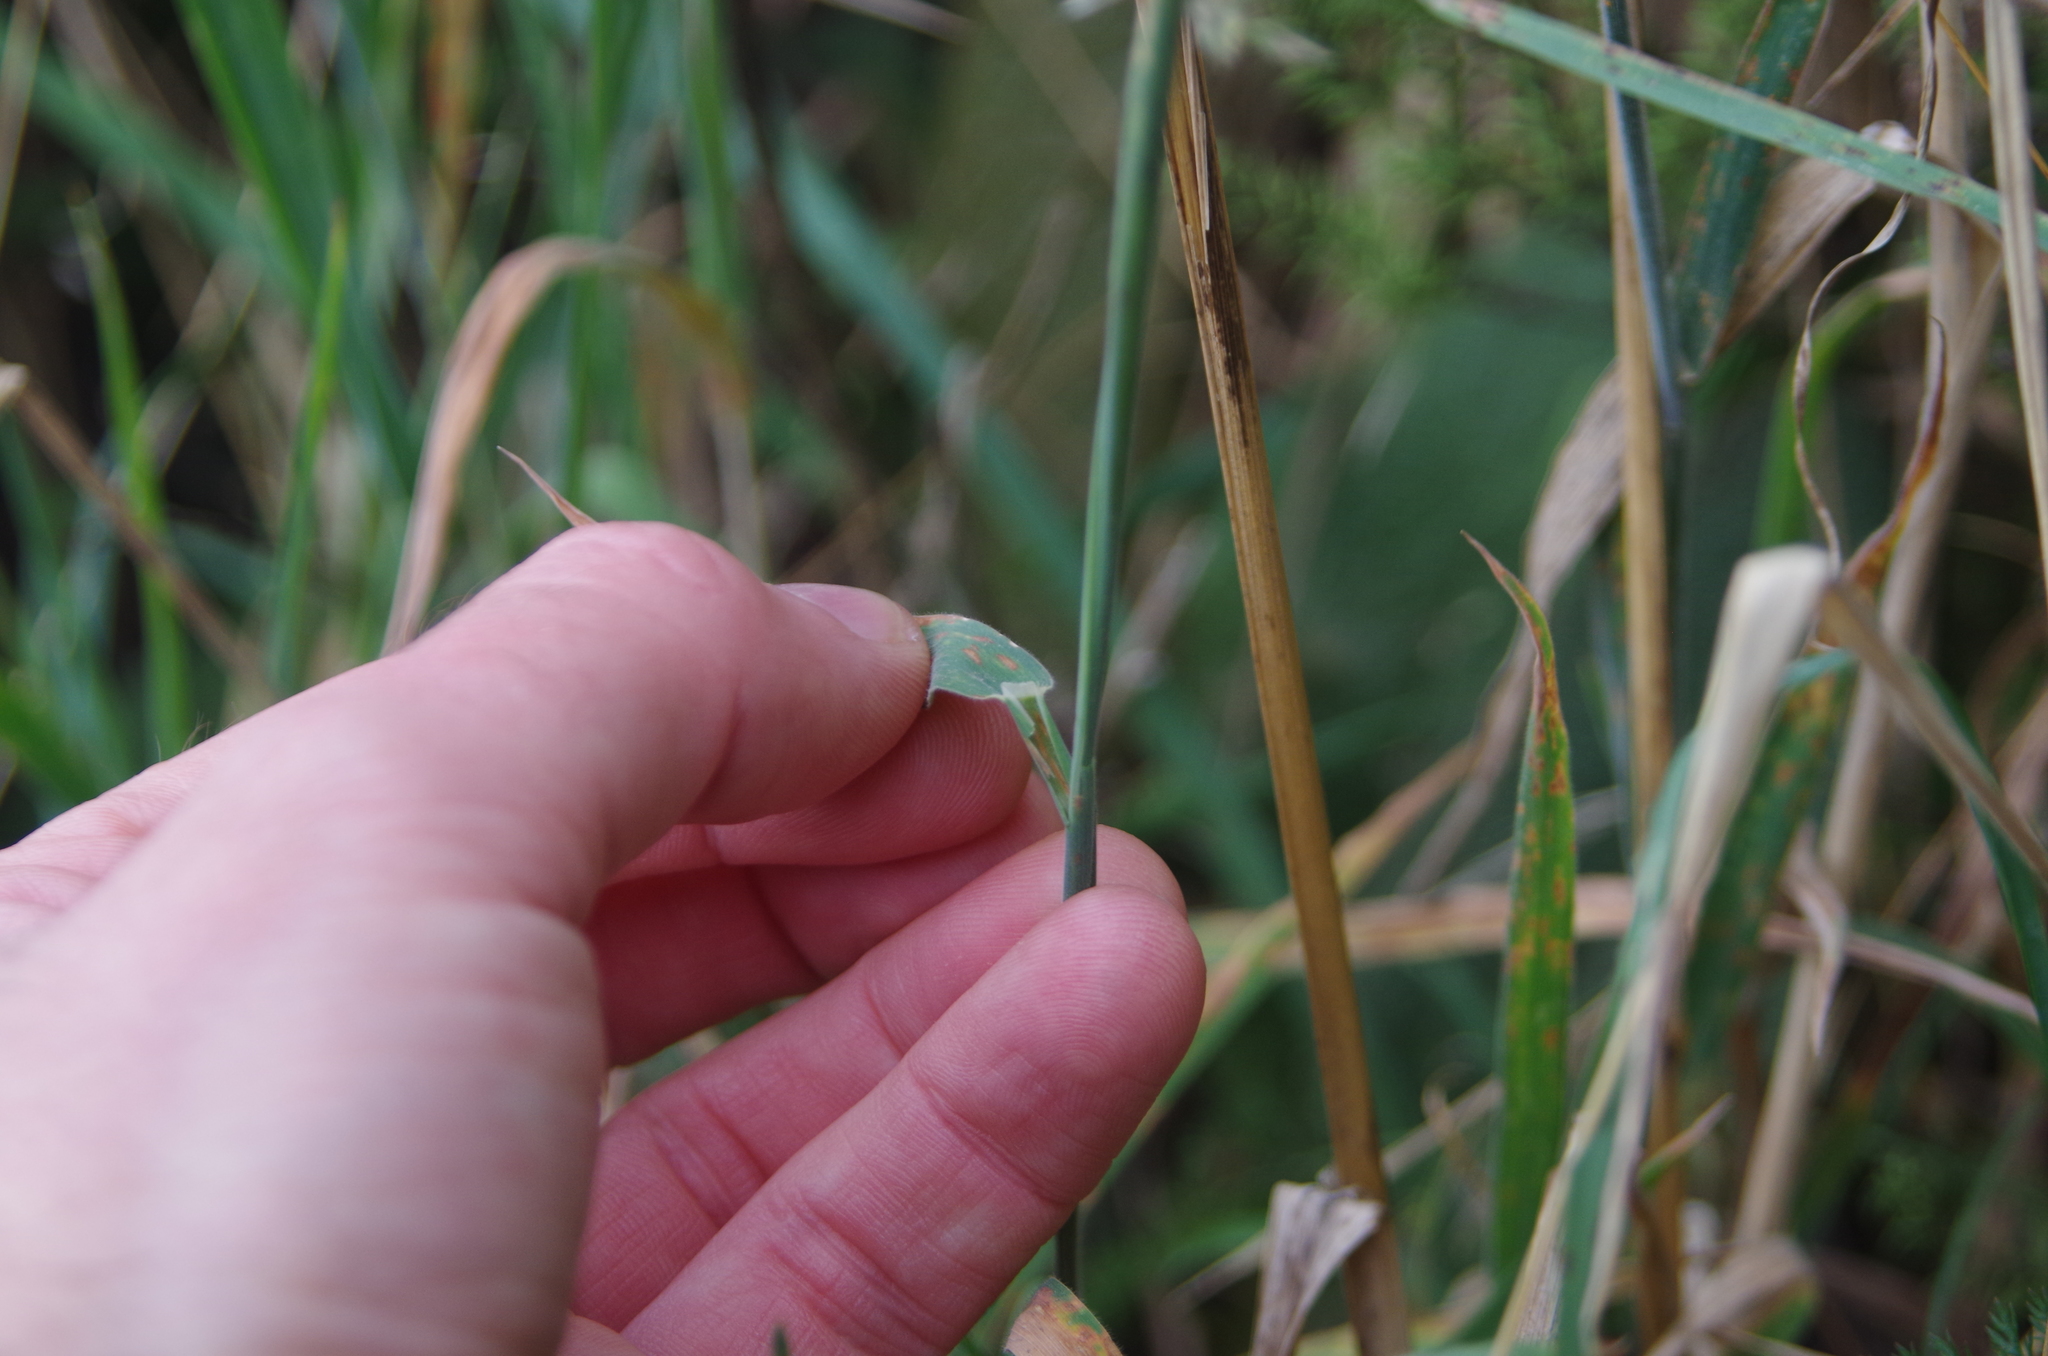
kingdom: Plantae
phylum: Tracheophyta
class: Liliopsida
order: Poales
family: Poaceae
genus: Holcus
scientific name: Holcus lanatus
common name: Yorkshire-fog
